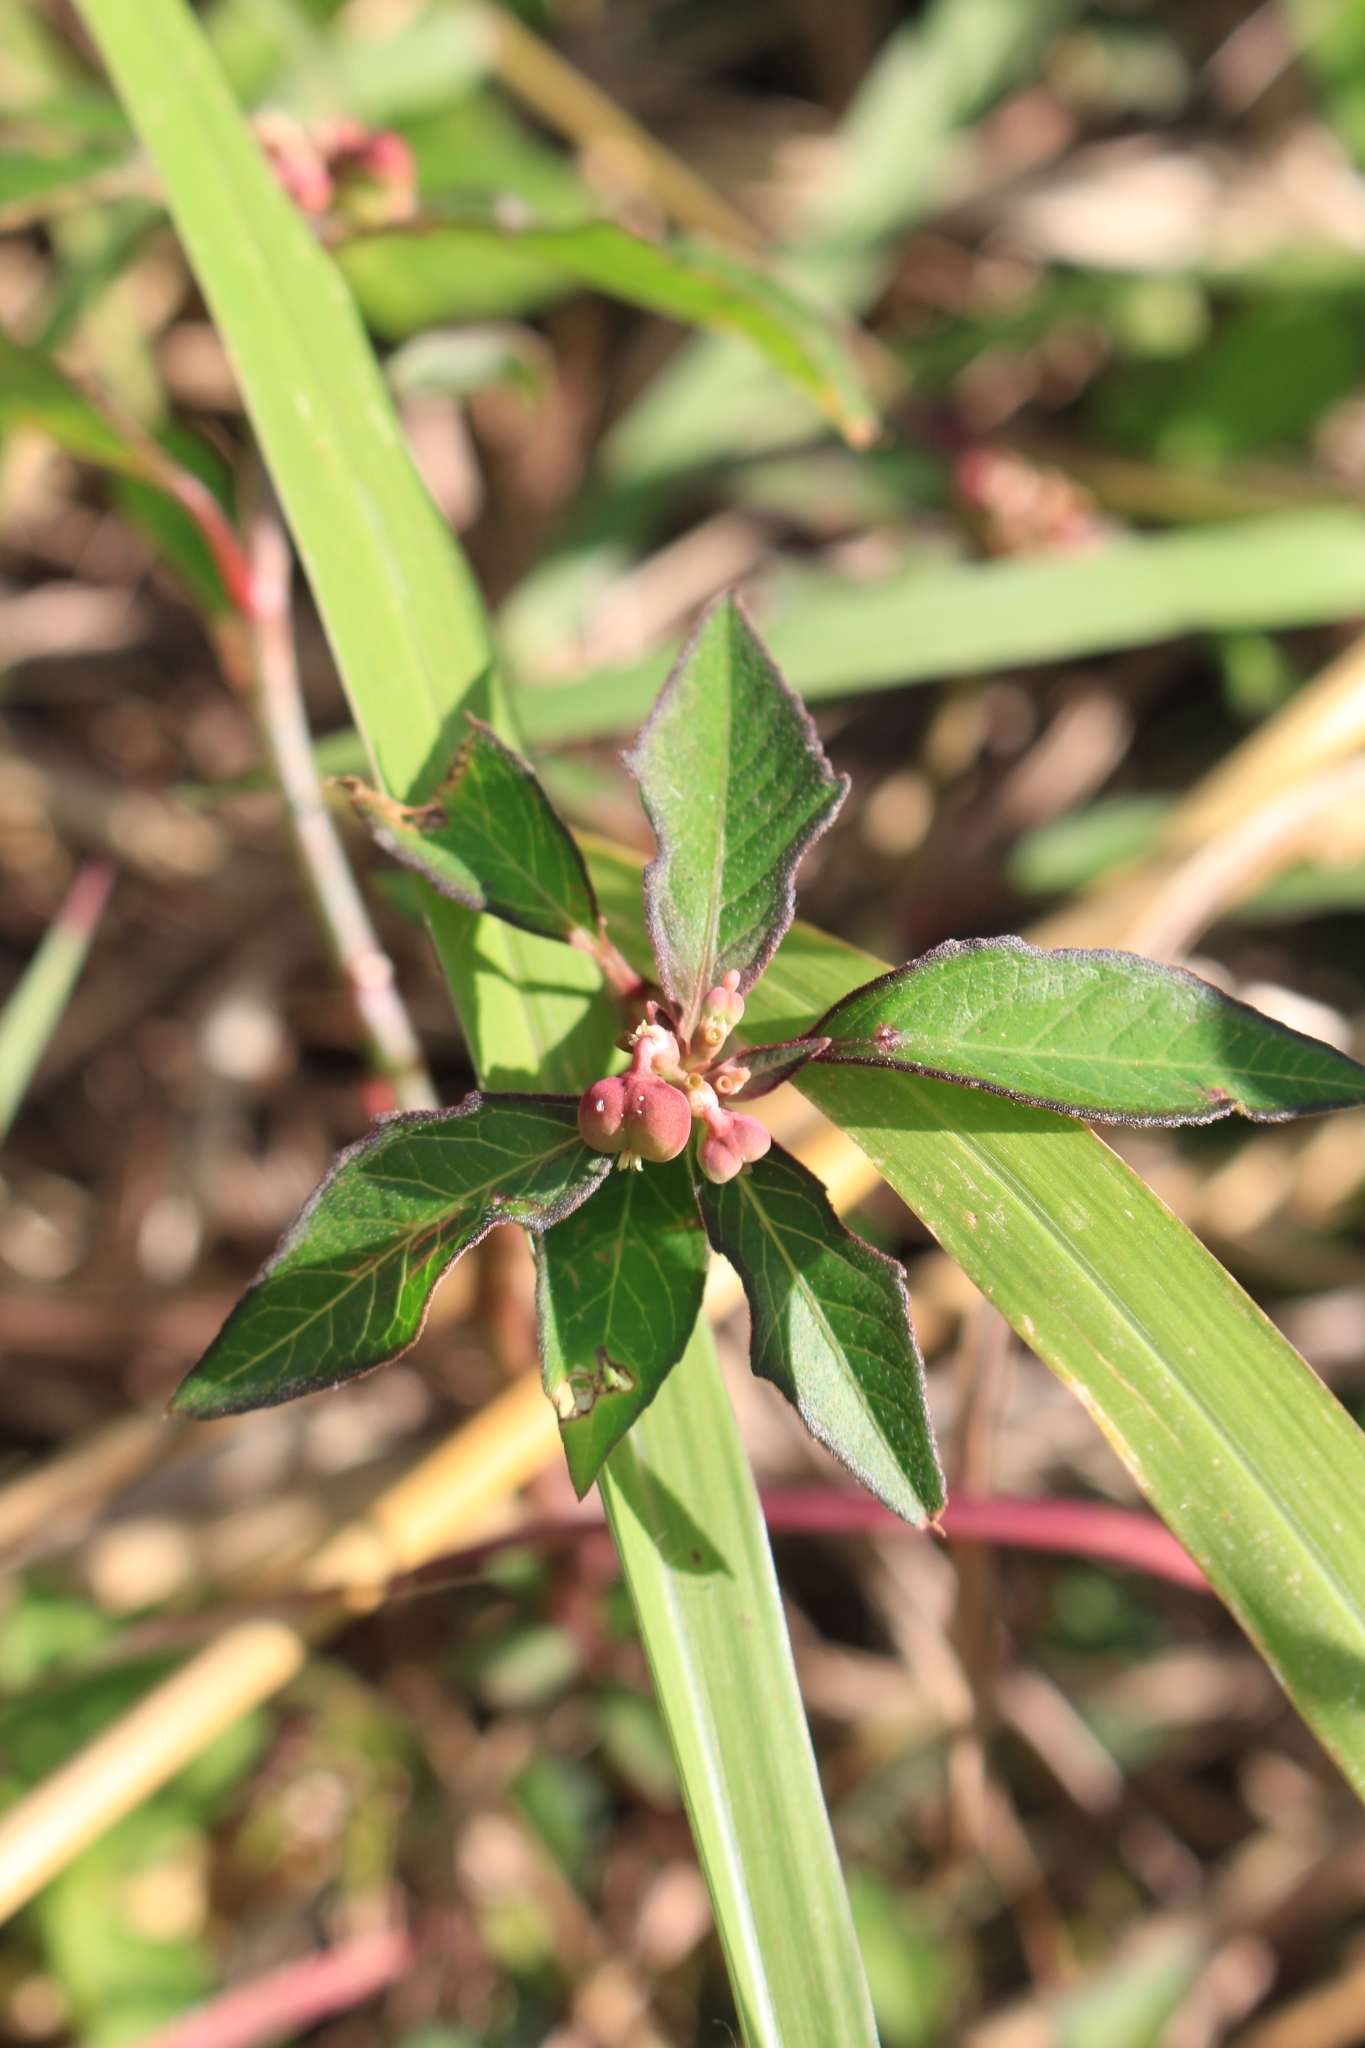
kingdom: Plantae
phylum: Tracheophyta
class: Magnoliopsida
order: Malpighiales
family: Euphorbiaceae
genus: Euphorbia
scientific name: Euphorbia heterophylla
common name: Mexican fireplant
